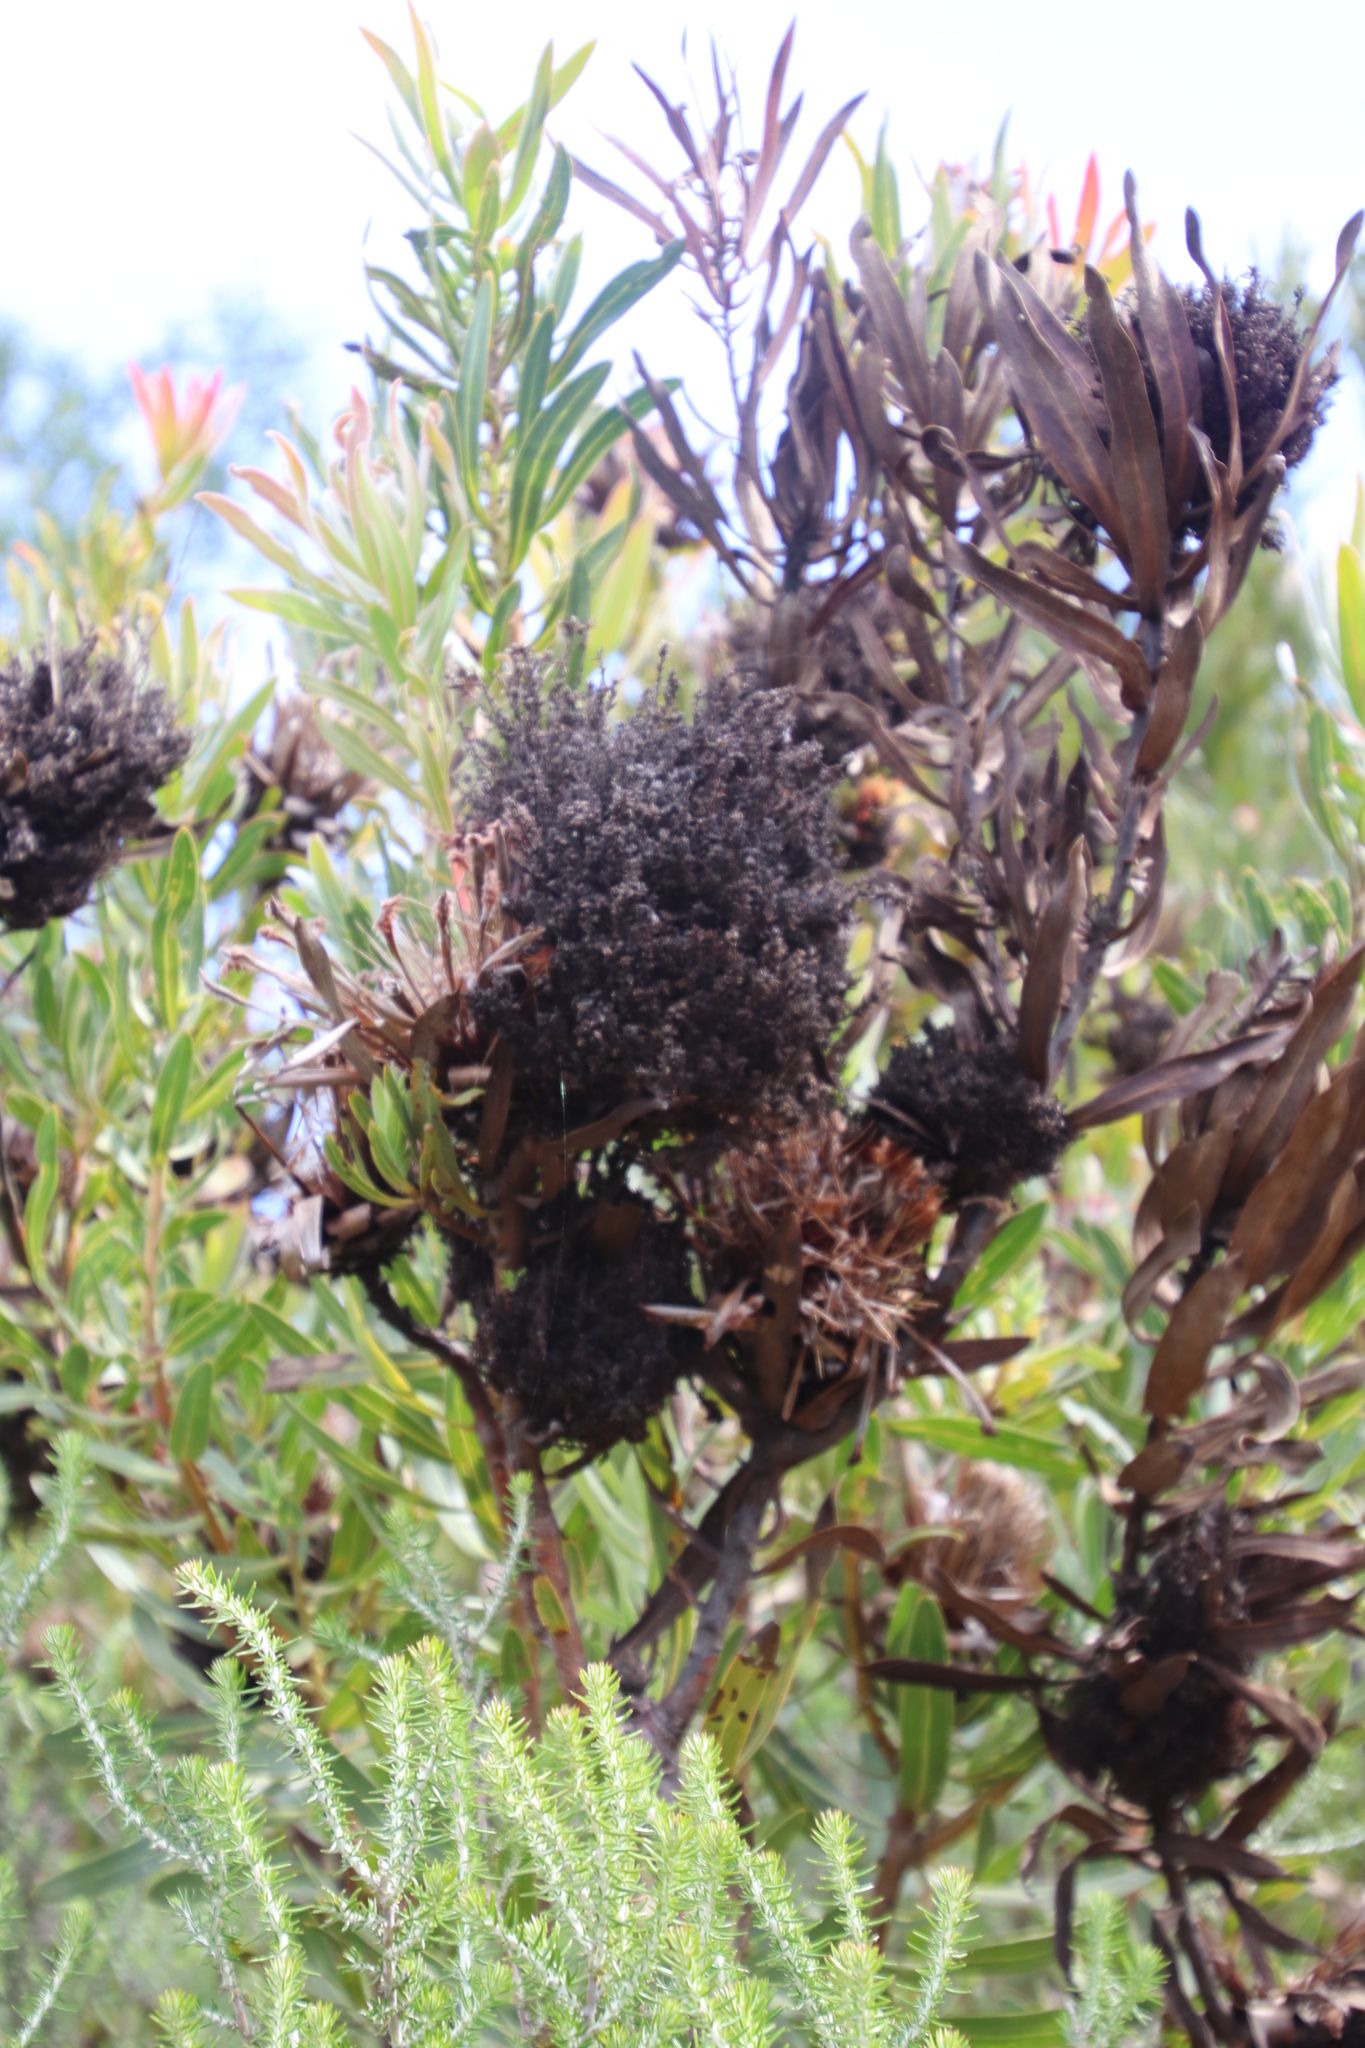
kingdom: Bacteria
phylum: Firmicutes
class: Bacilli
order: Acholeplasmatales
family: Acholeplasmataceae
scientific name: Acholeplasmataceae
